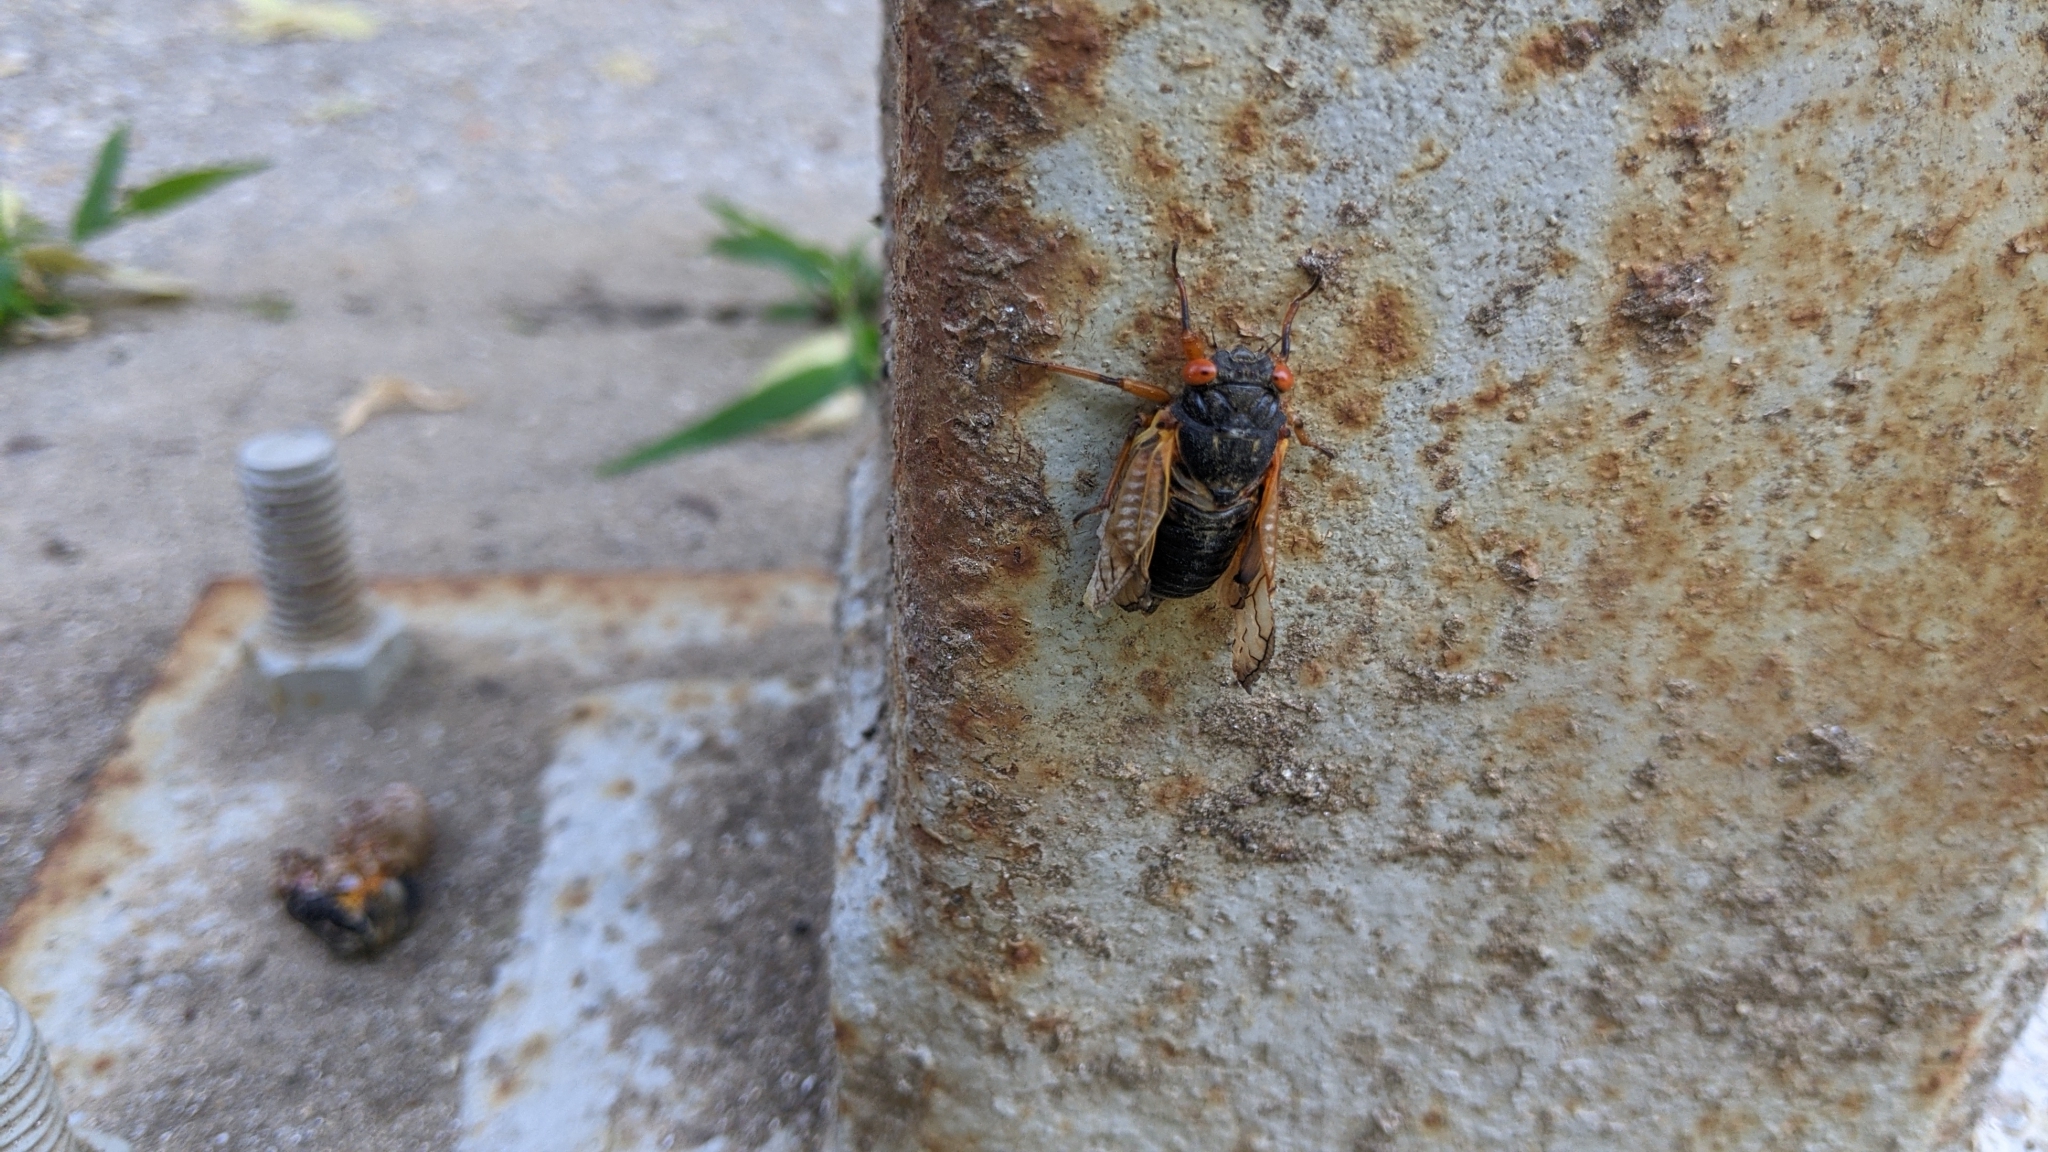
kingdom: Animalia
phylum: Arthropoda
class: Insecta
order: Hemiptera
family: Cicadidae
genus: Magicicada
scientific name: Magicicada
